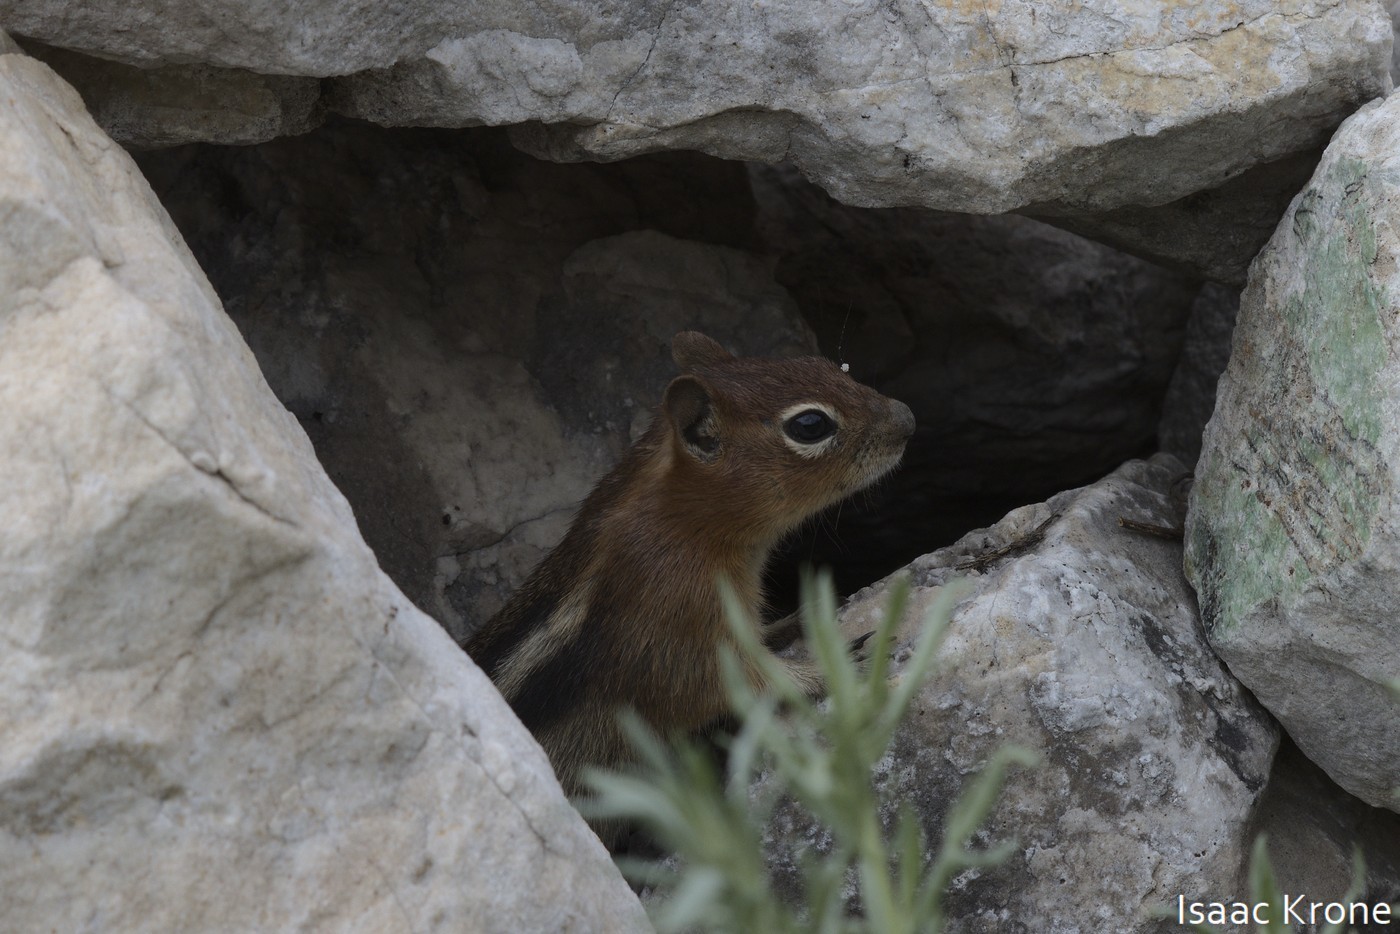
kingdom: Animalia
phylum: Chordata
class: Mammalia
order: Rodentia
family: Sciuridae
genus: Callospermophilus
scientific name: Callospermophilus lateralis
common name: Golden-mantled ground squirrel
